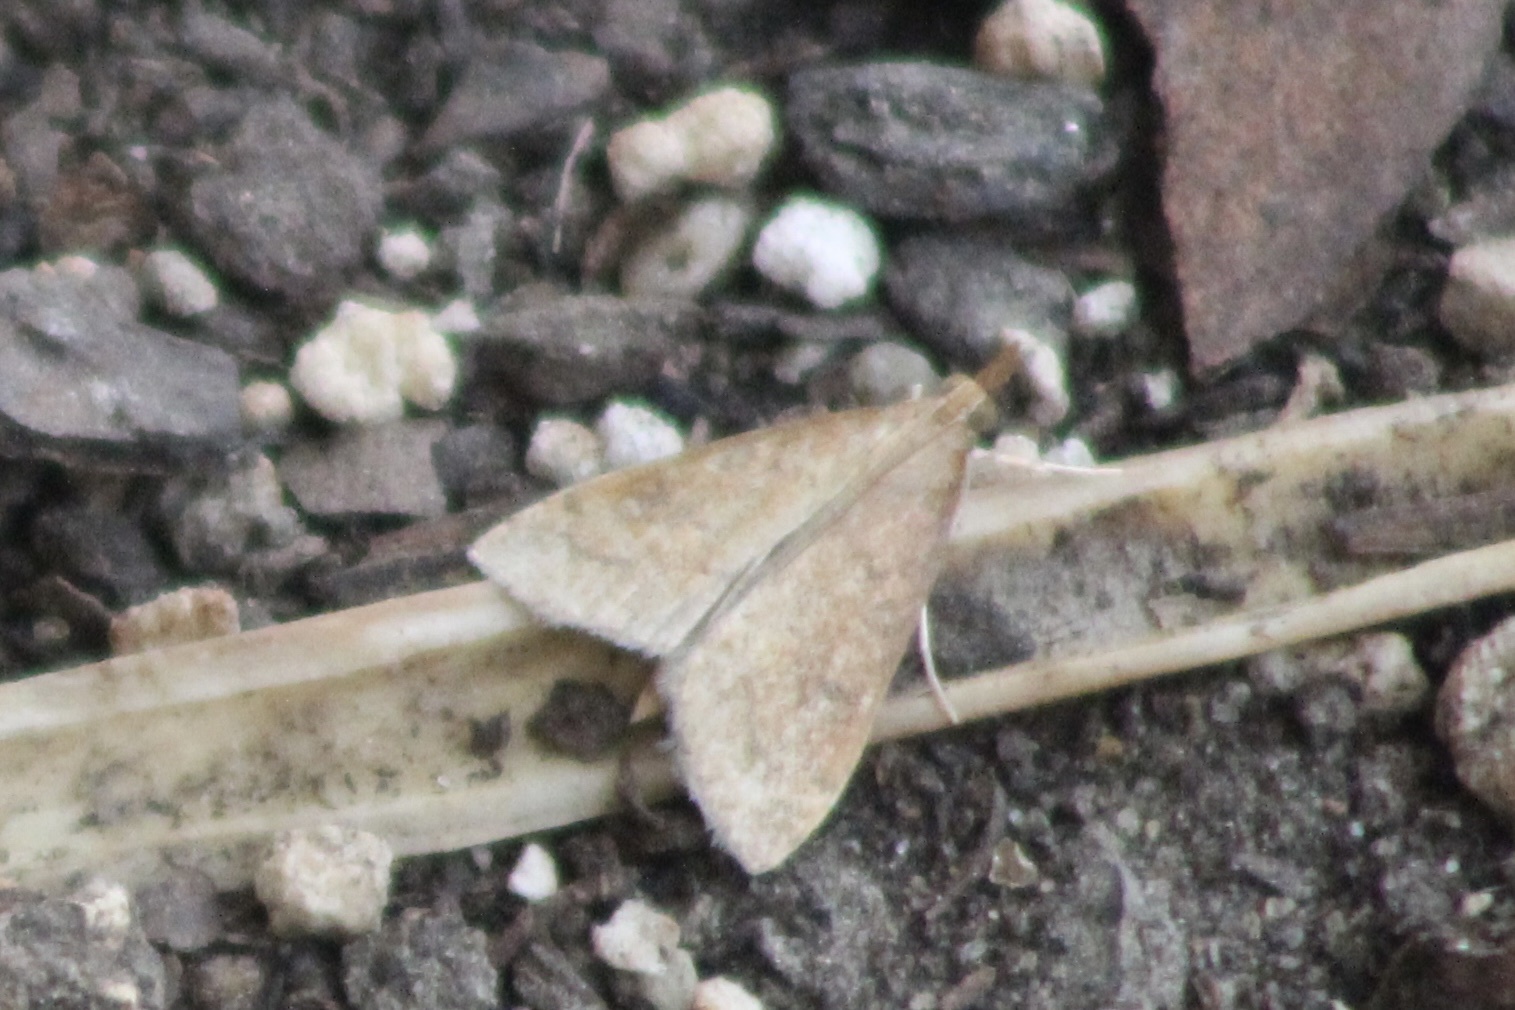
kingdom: Animalia
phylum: Arthropoda
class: Insecta
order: Lepidoptera
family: Crambidae
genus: Udea
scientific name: Udea rubigalis
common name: Celery leaftier moth
